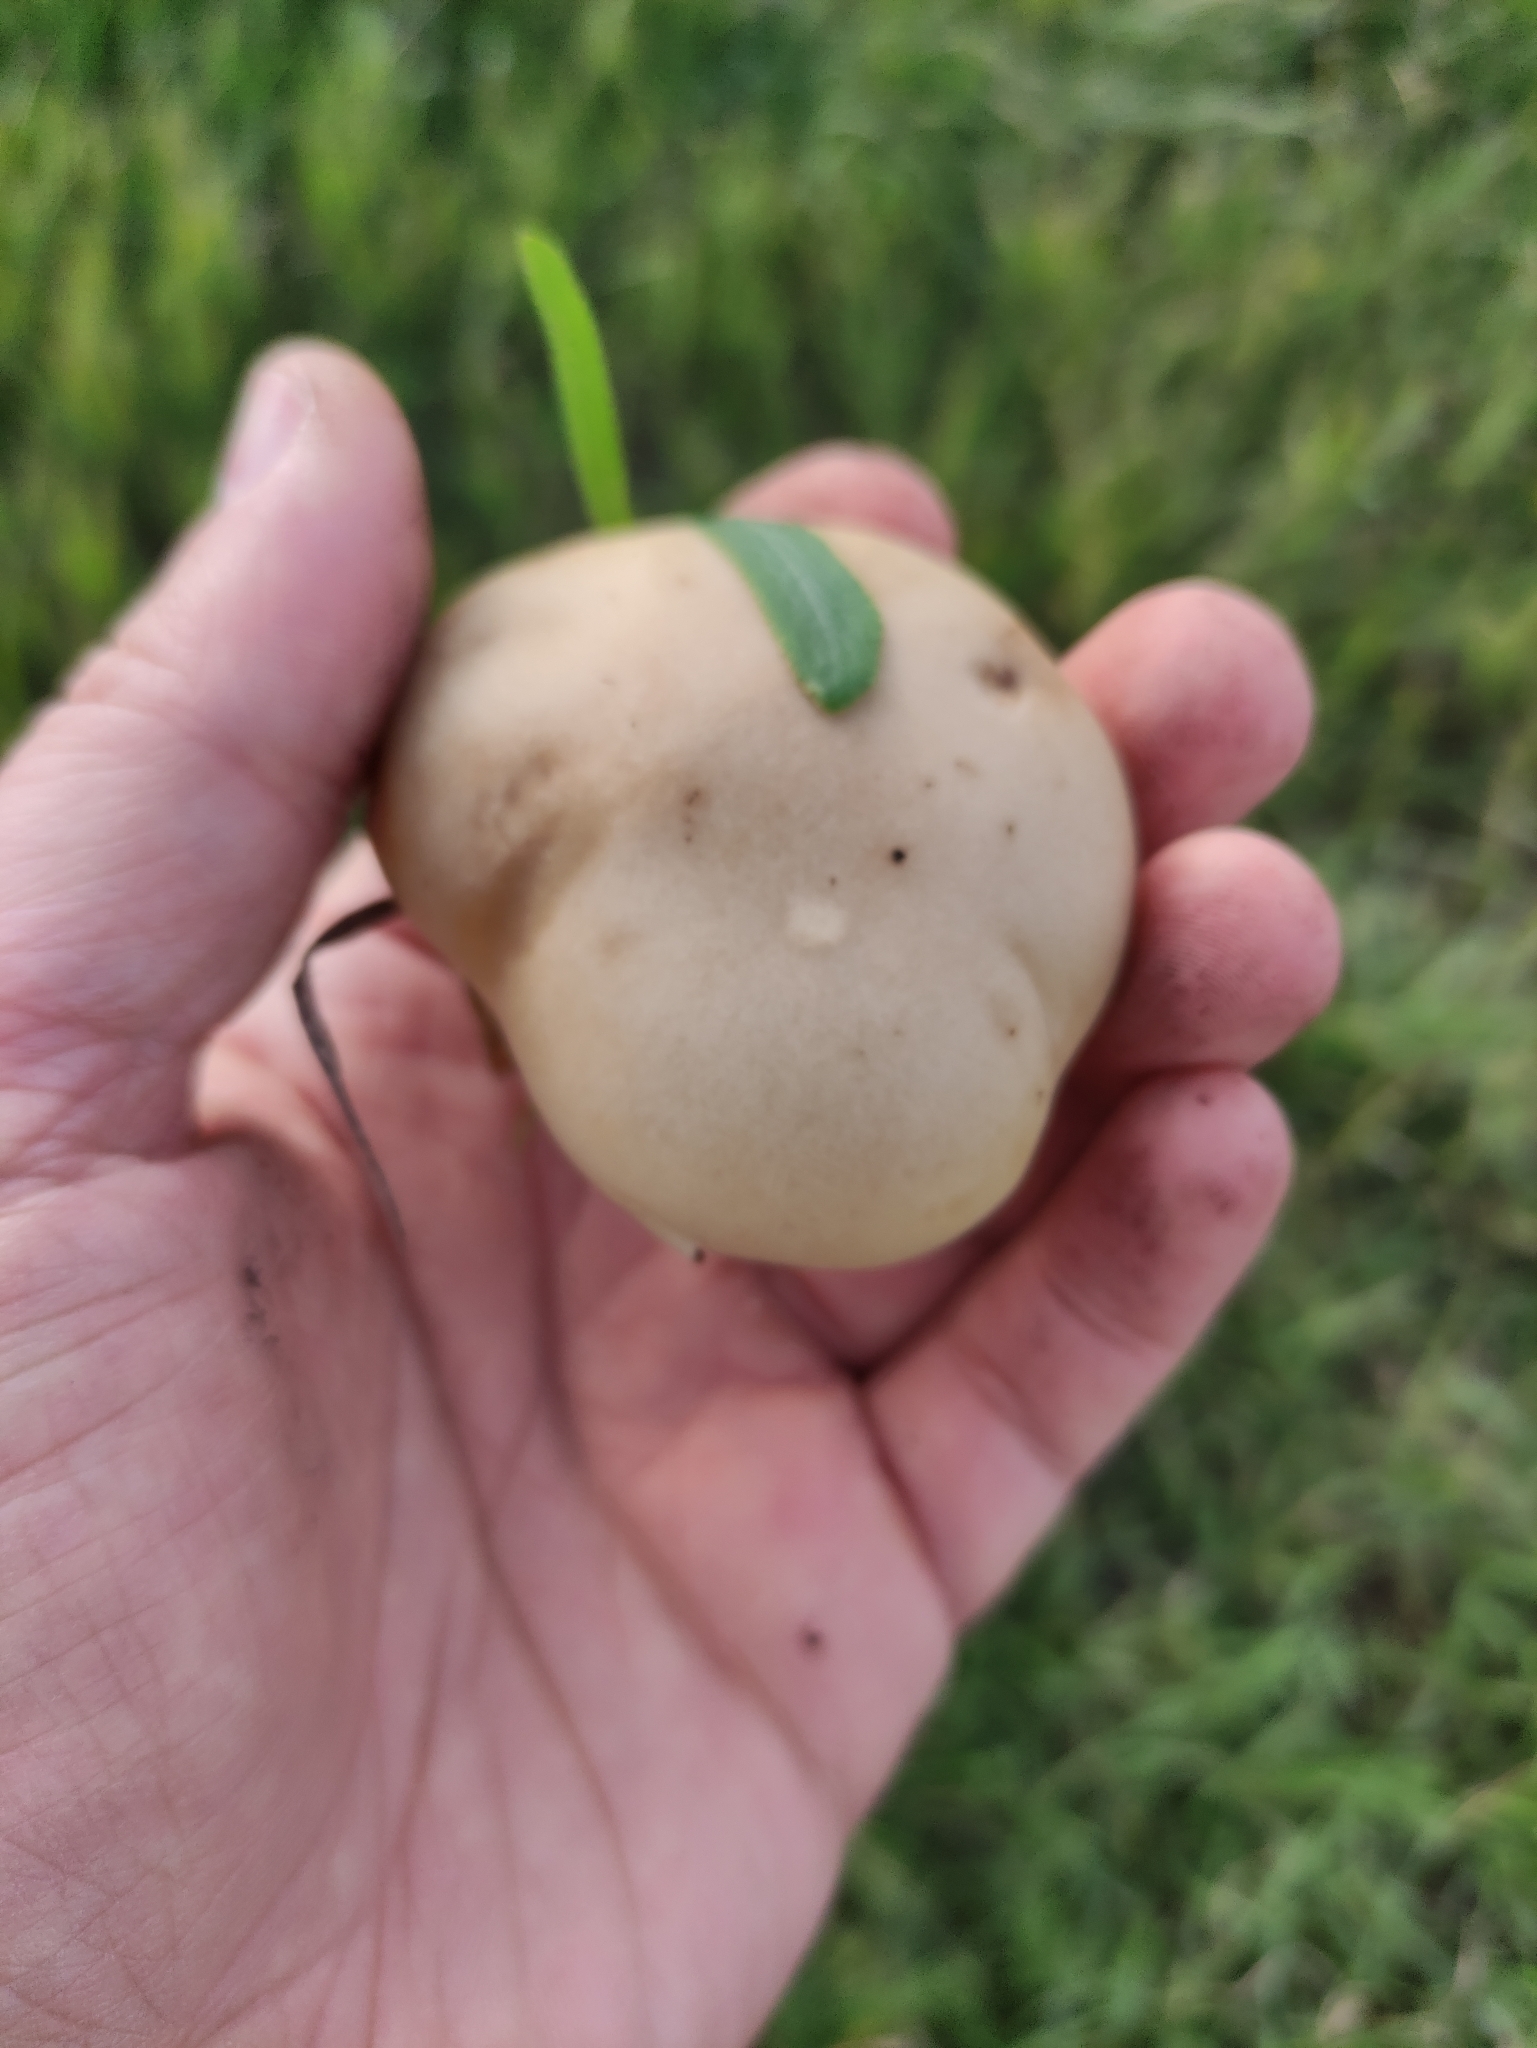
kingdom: Fungi
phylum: Basidiomycota
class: Agaricomycetes
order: Agaricales
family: Omphalotaceae
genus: Collybiopsis
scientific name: Collybiopsis peronata
